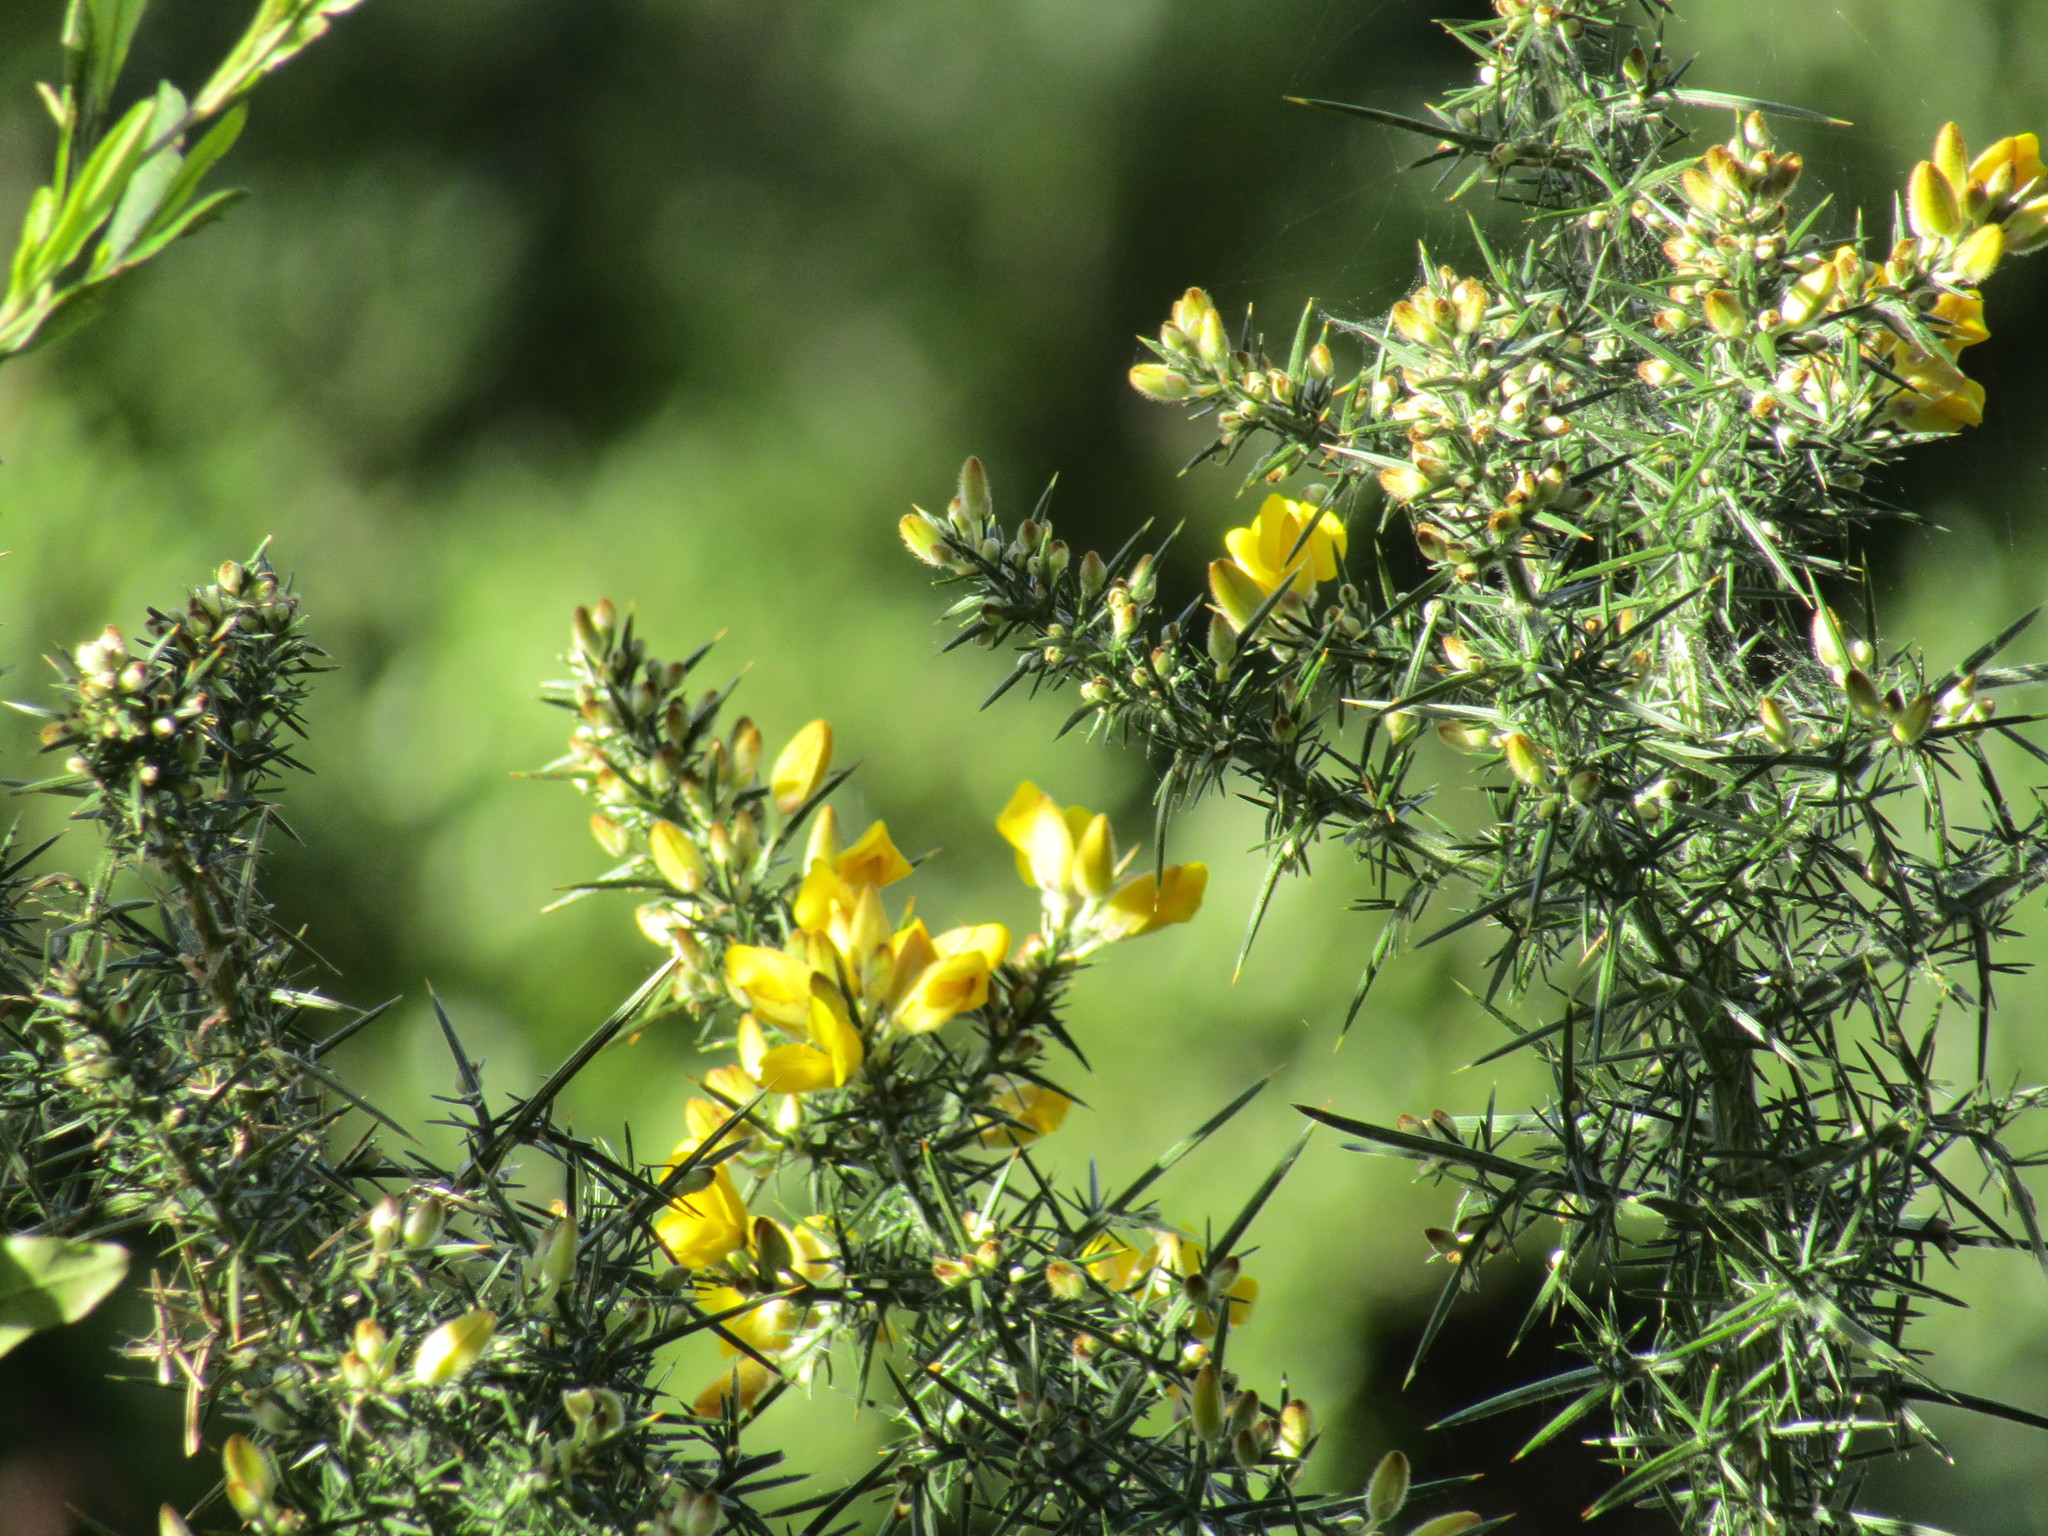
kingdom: Plantae
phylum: Tracheophyta
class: Magnoliopsida
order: Fabales
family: Fabaceae
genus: Ulex
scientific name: Ulex europaeus
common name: Common gorse
